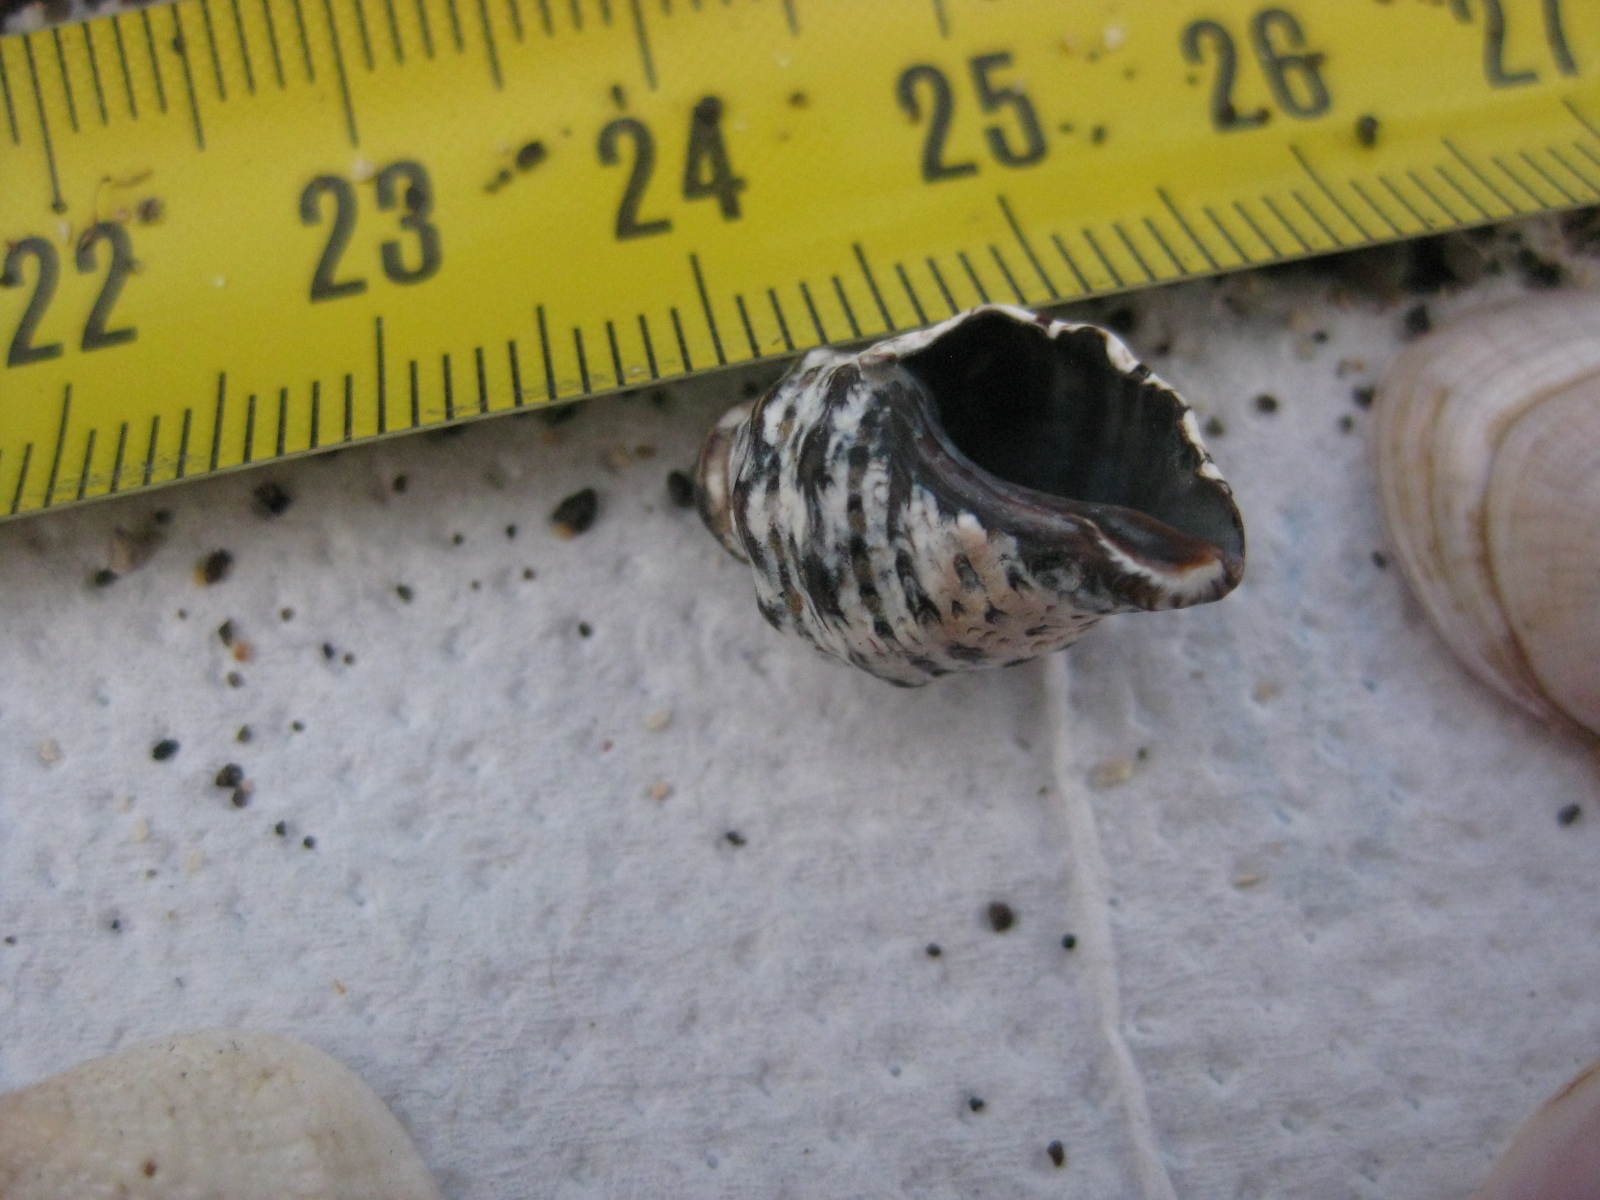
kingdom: Animalia
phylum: Mollusca
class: Gastropoda
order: Neogastropoda
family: Muricidae
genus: Haustrum
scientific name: Haustrum scobina
